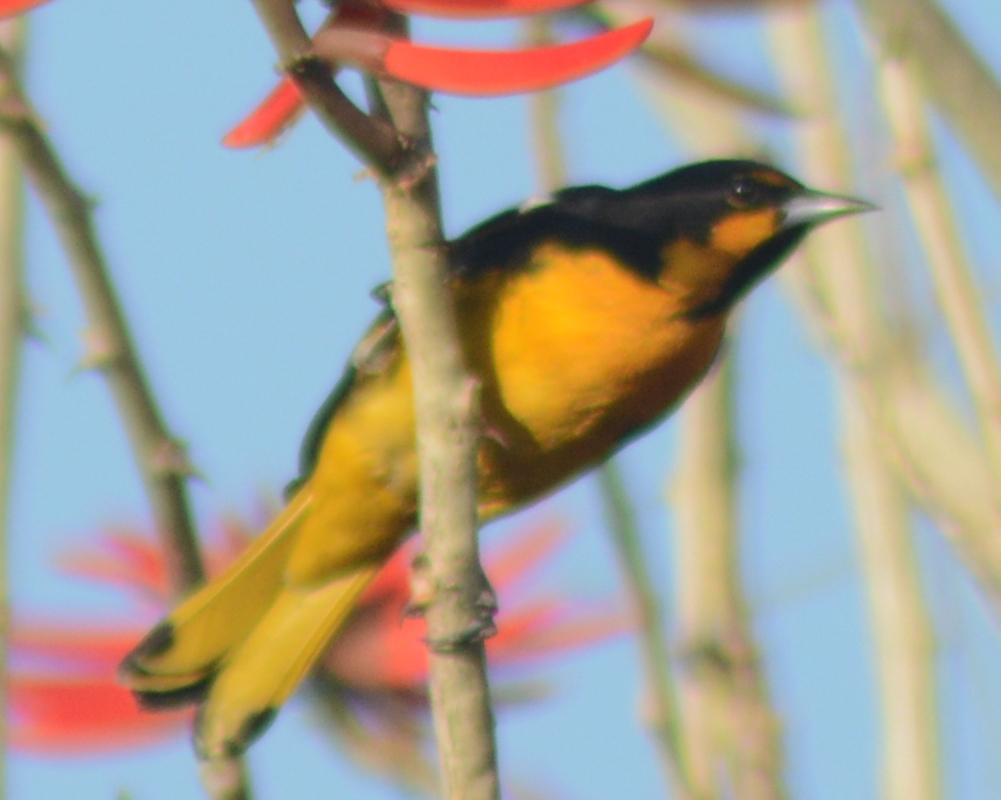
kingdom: Animalia
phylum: Chordata
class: Aves
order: Passeriformes
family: Icteridae
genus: Icterus
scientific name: Icterus abeillei
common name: Black-backed oriole
